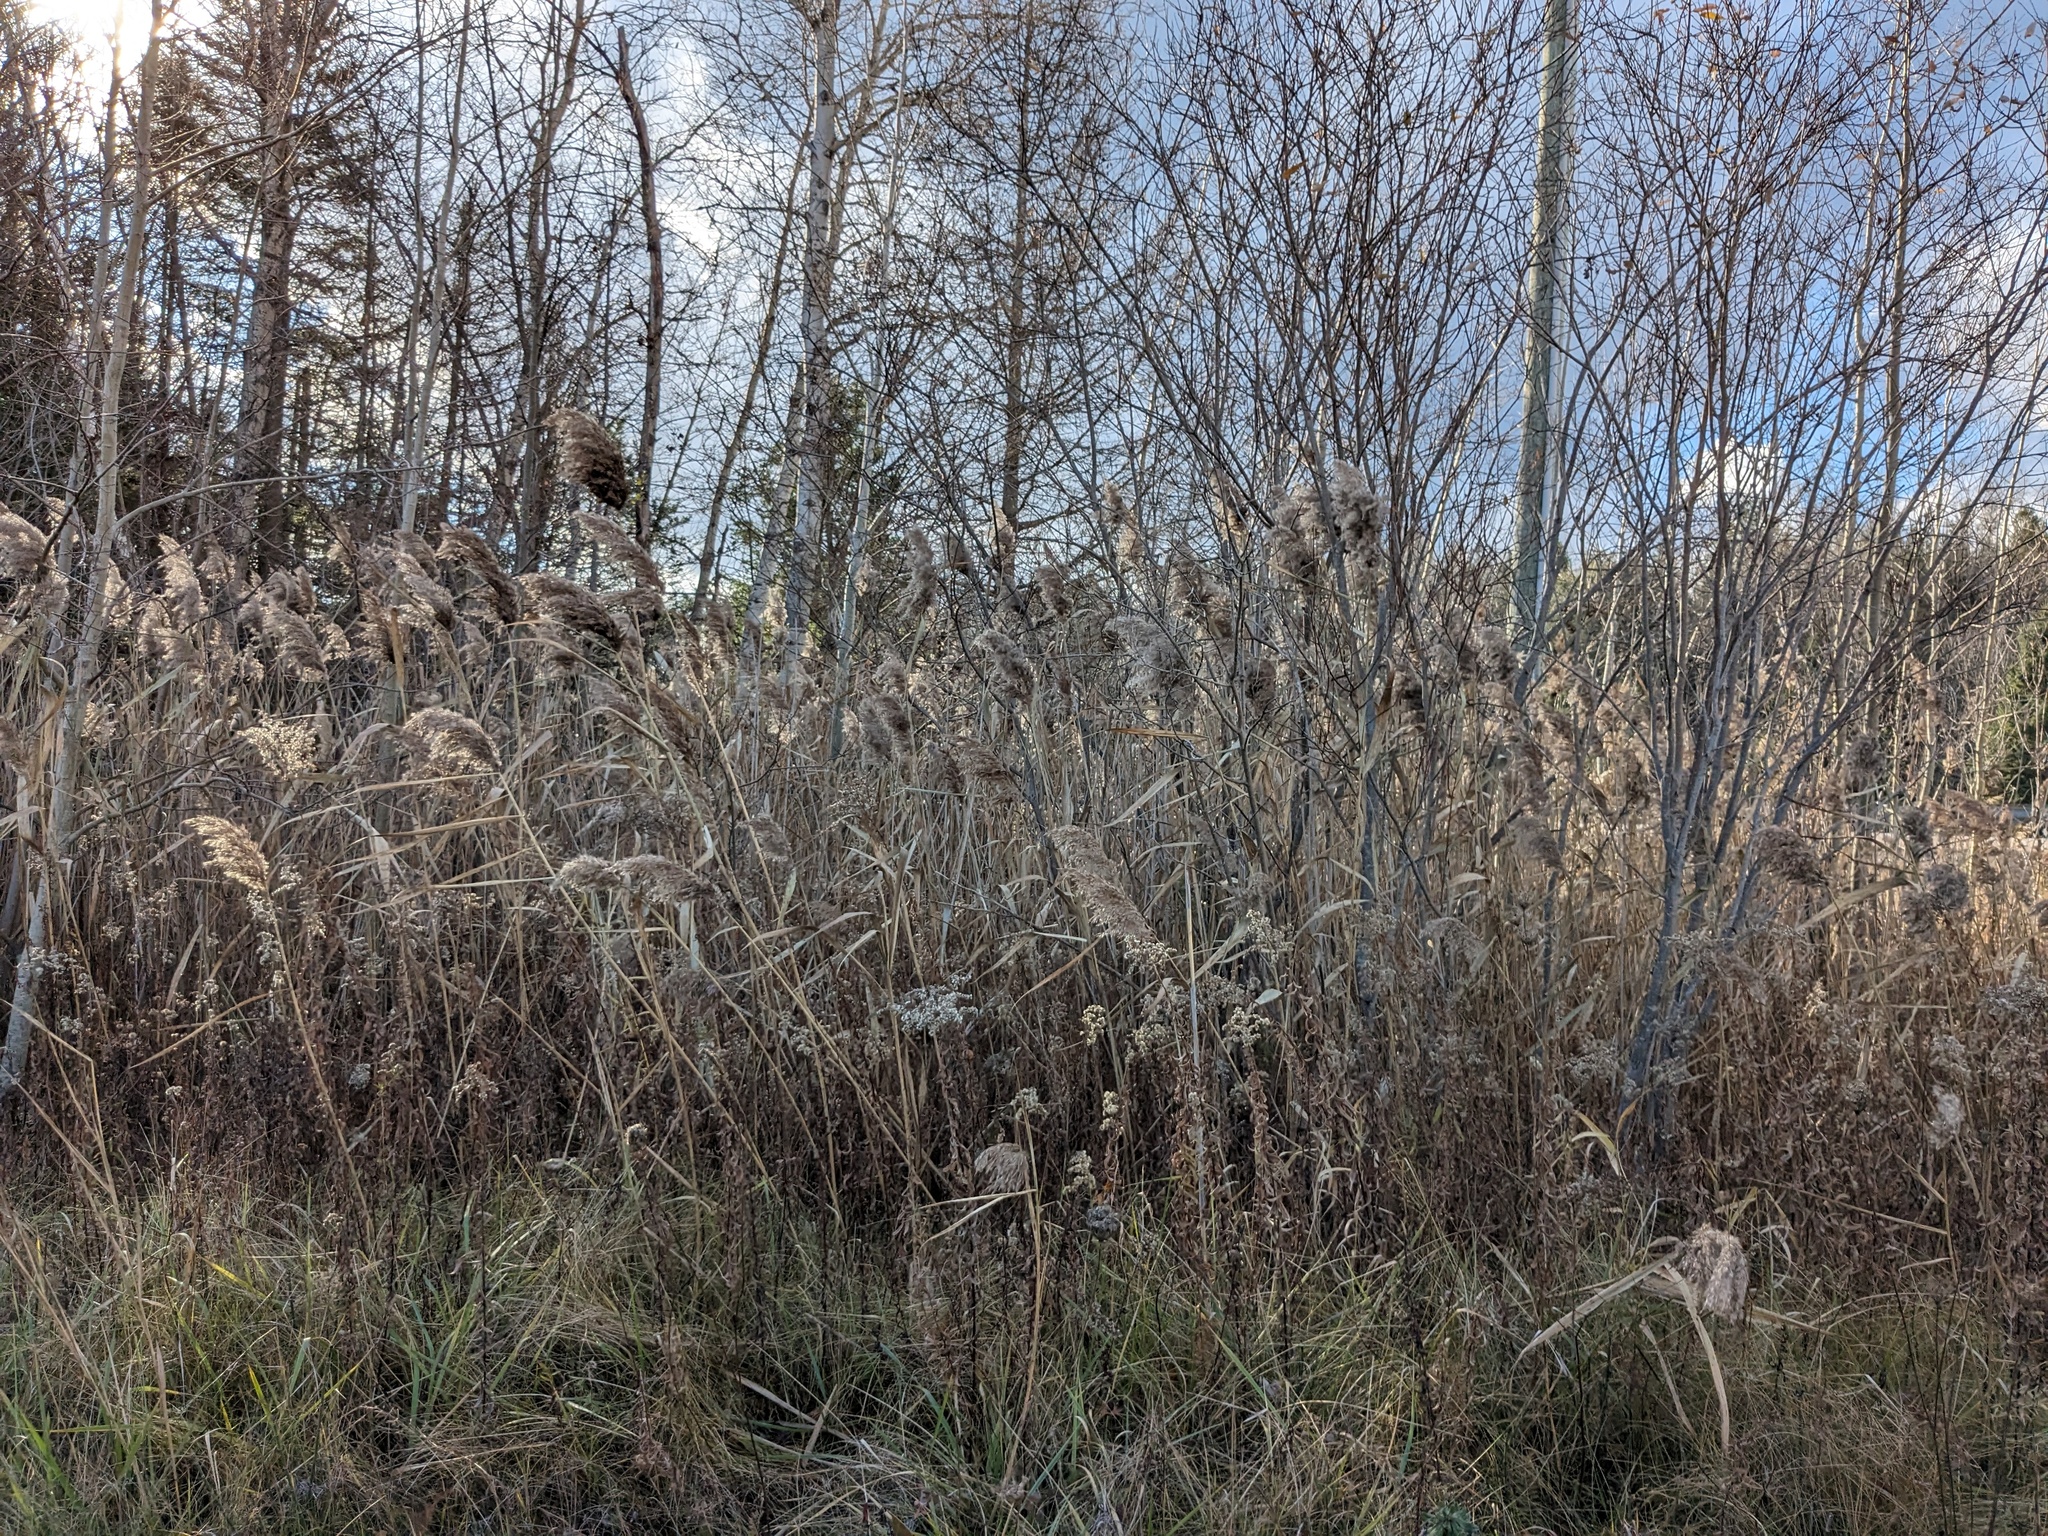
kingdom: Plantae
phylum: Tracheophyta
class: Liliopsida
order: Poales
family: Poaceae
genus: Phragmites
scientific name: Phragmites australis
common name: Common reed
